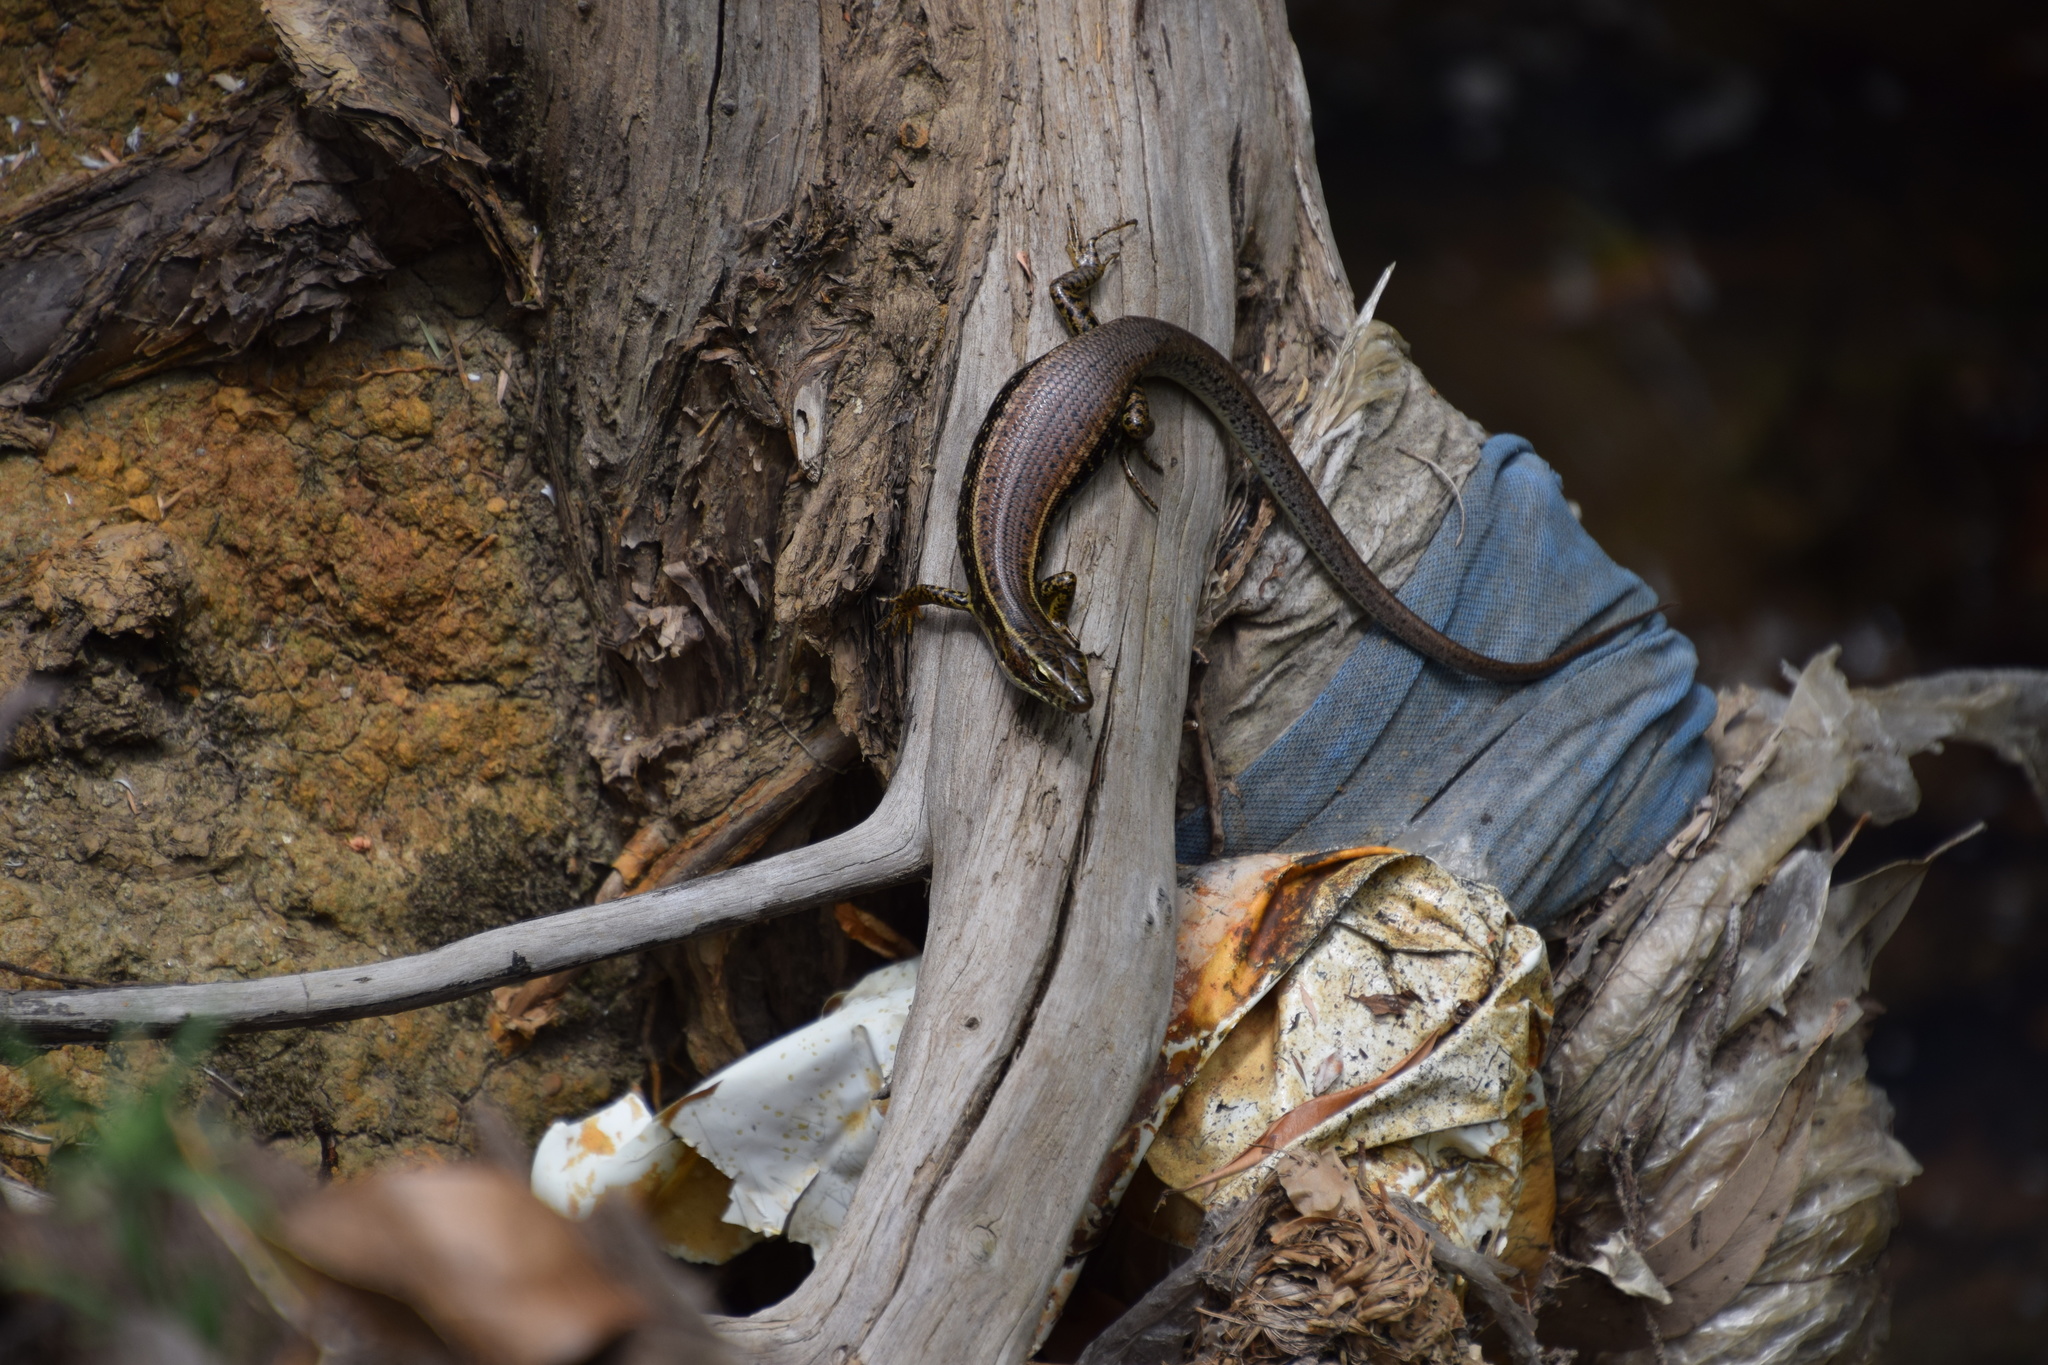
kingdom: Animalia
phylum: Chordata
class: Squamata
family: Scincidae
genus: Eulamprus
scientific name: Eulamprus quoyii
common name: Eastern water skink
